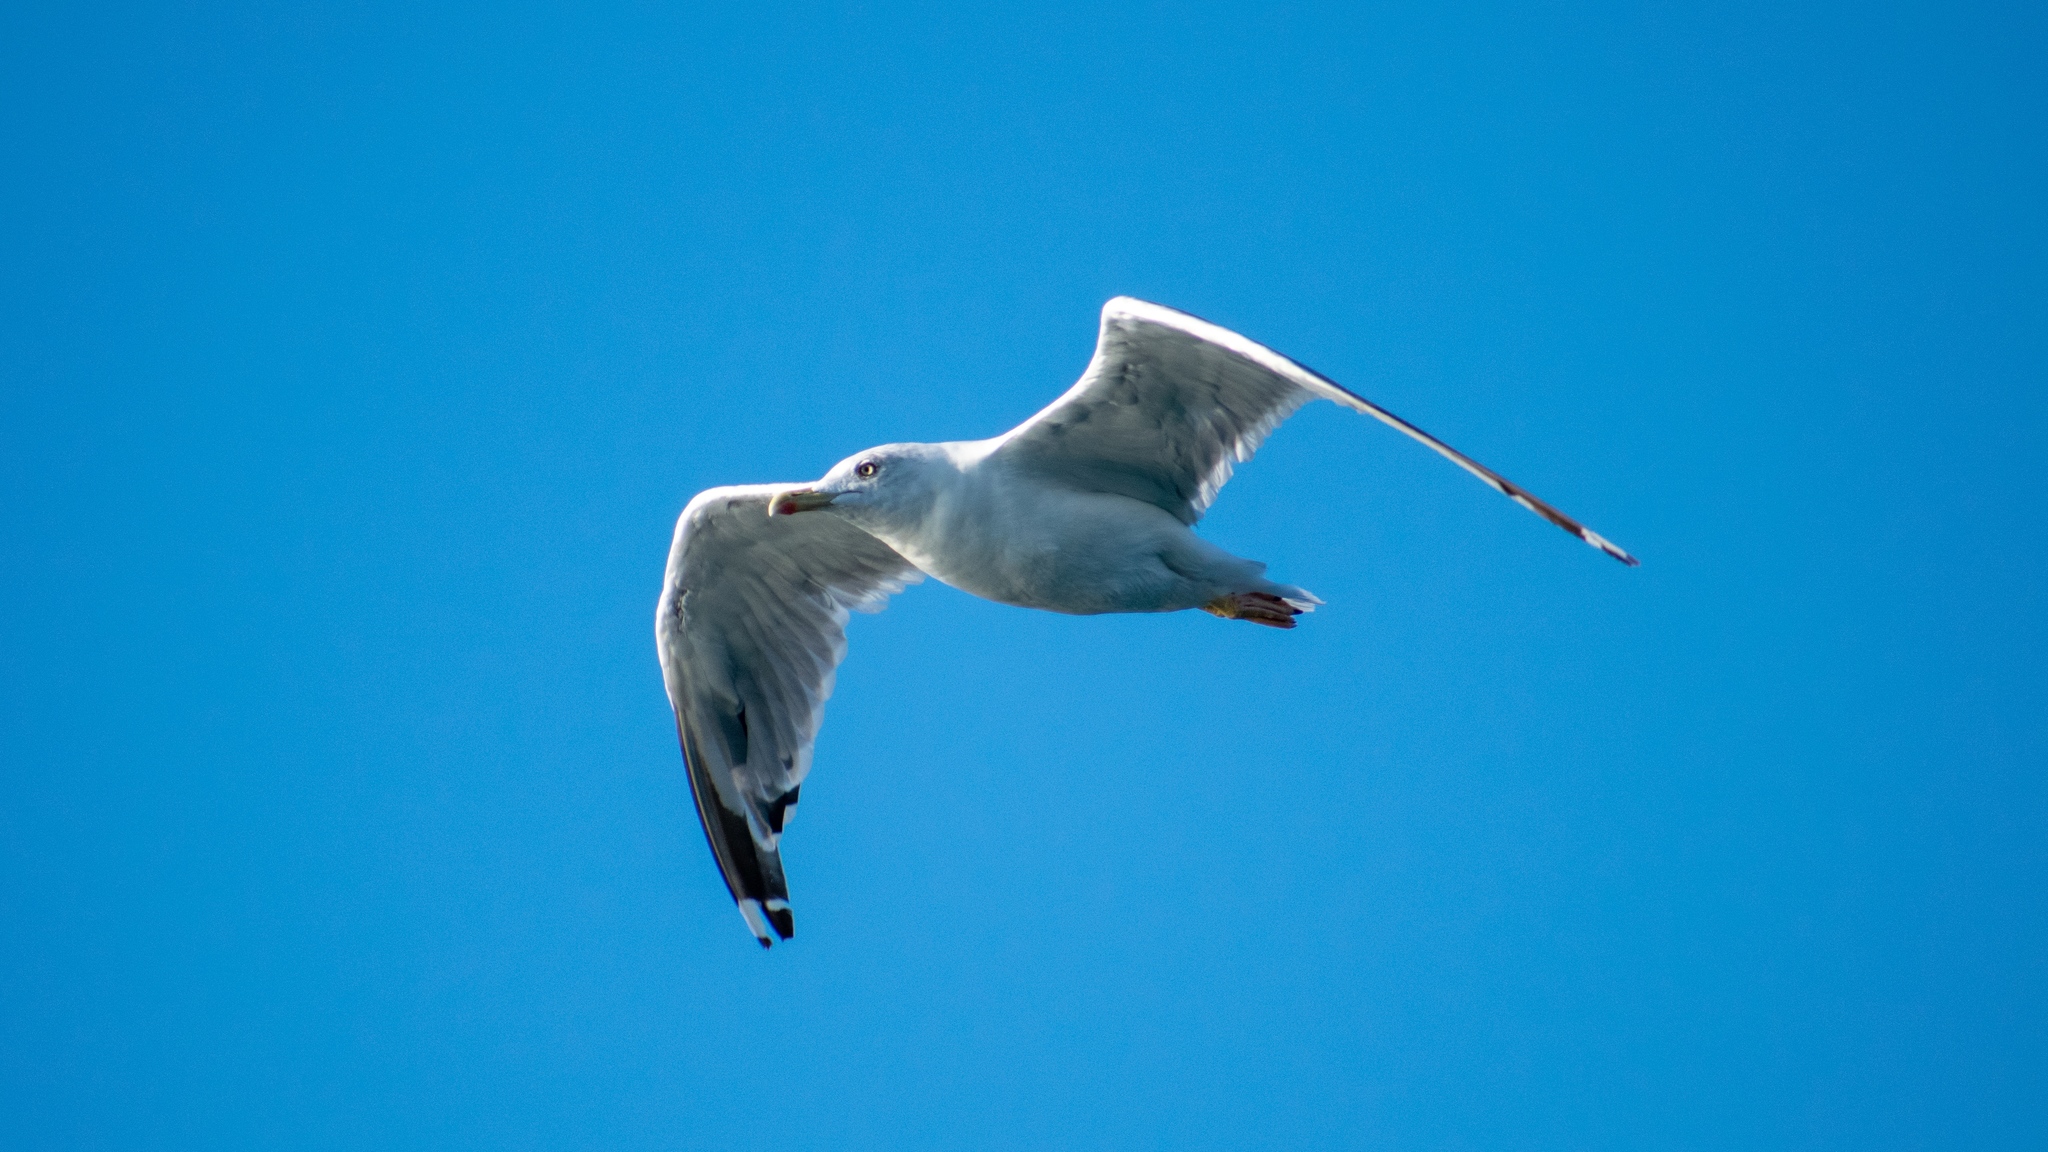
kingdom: Animalia
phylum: Chordata
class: Aves
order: Charadriiformes
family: Laridae
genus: Larus
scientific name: Larus michahellis
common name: Yellow-legged gull
